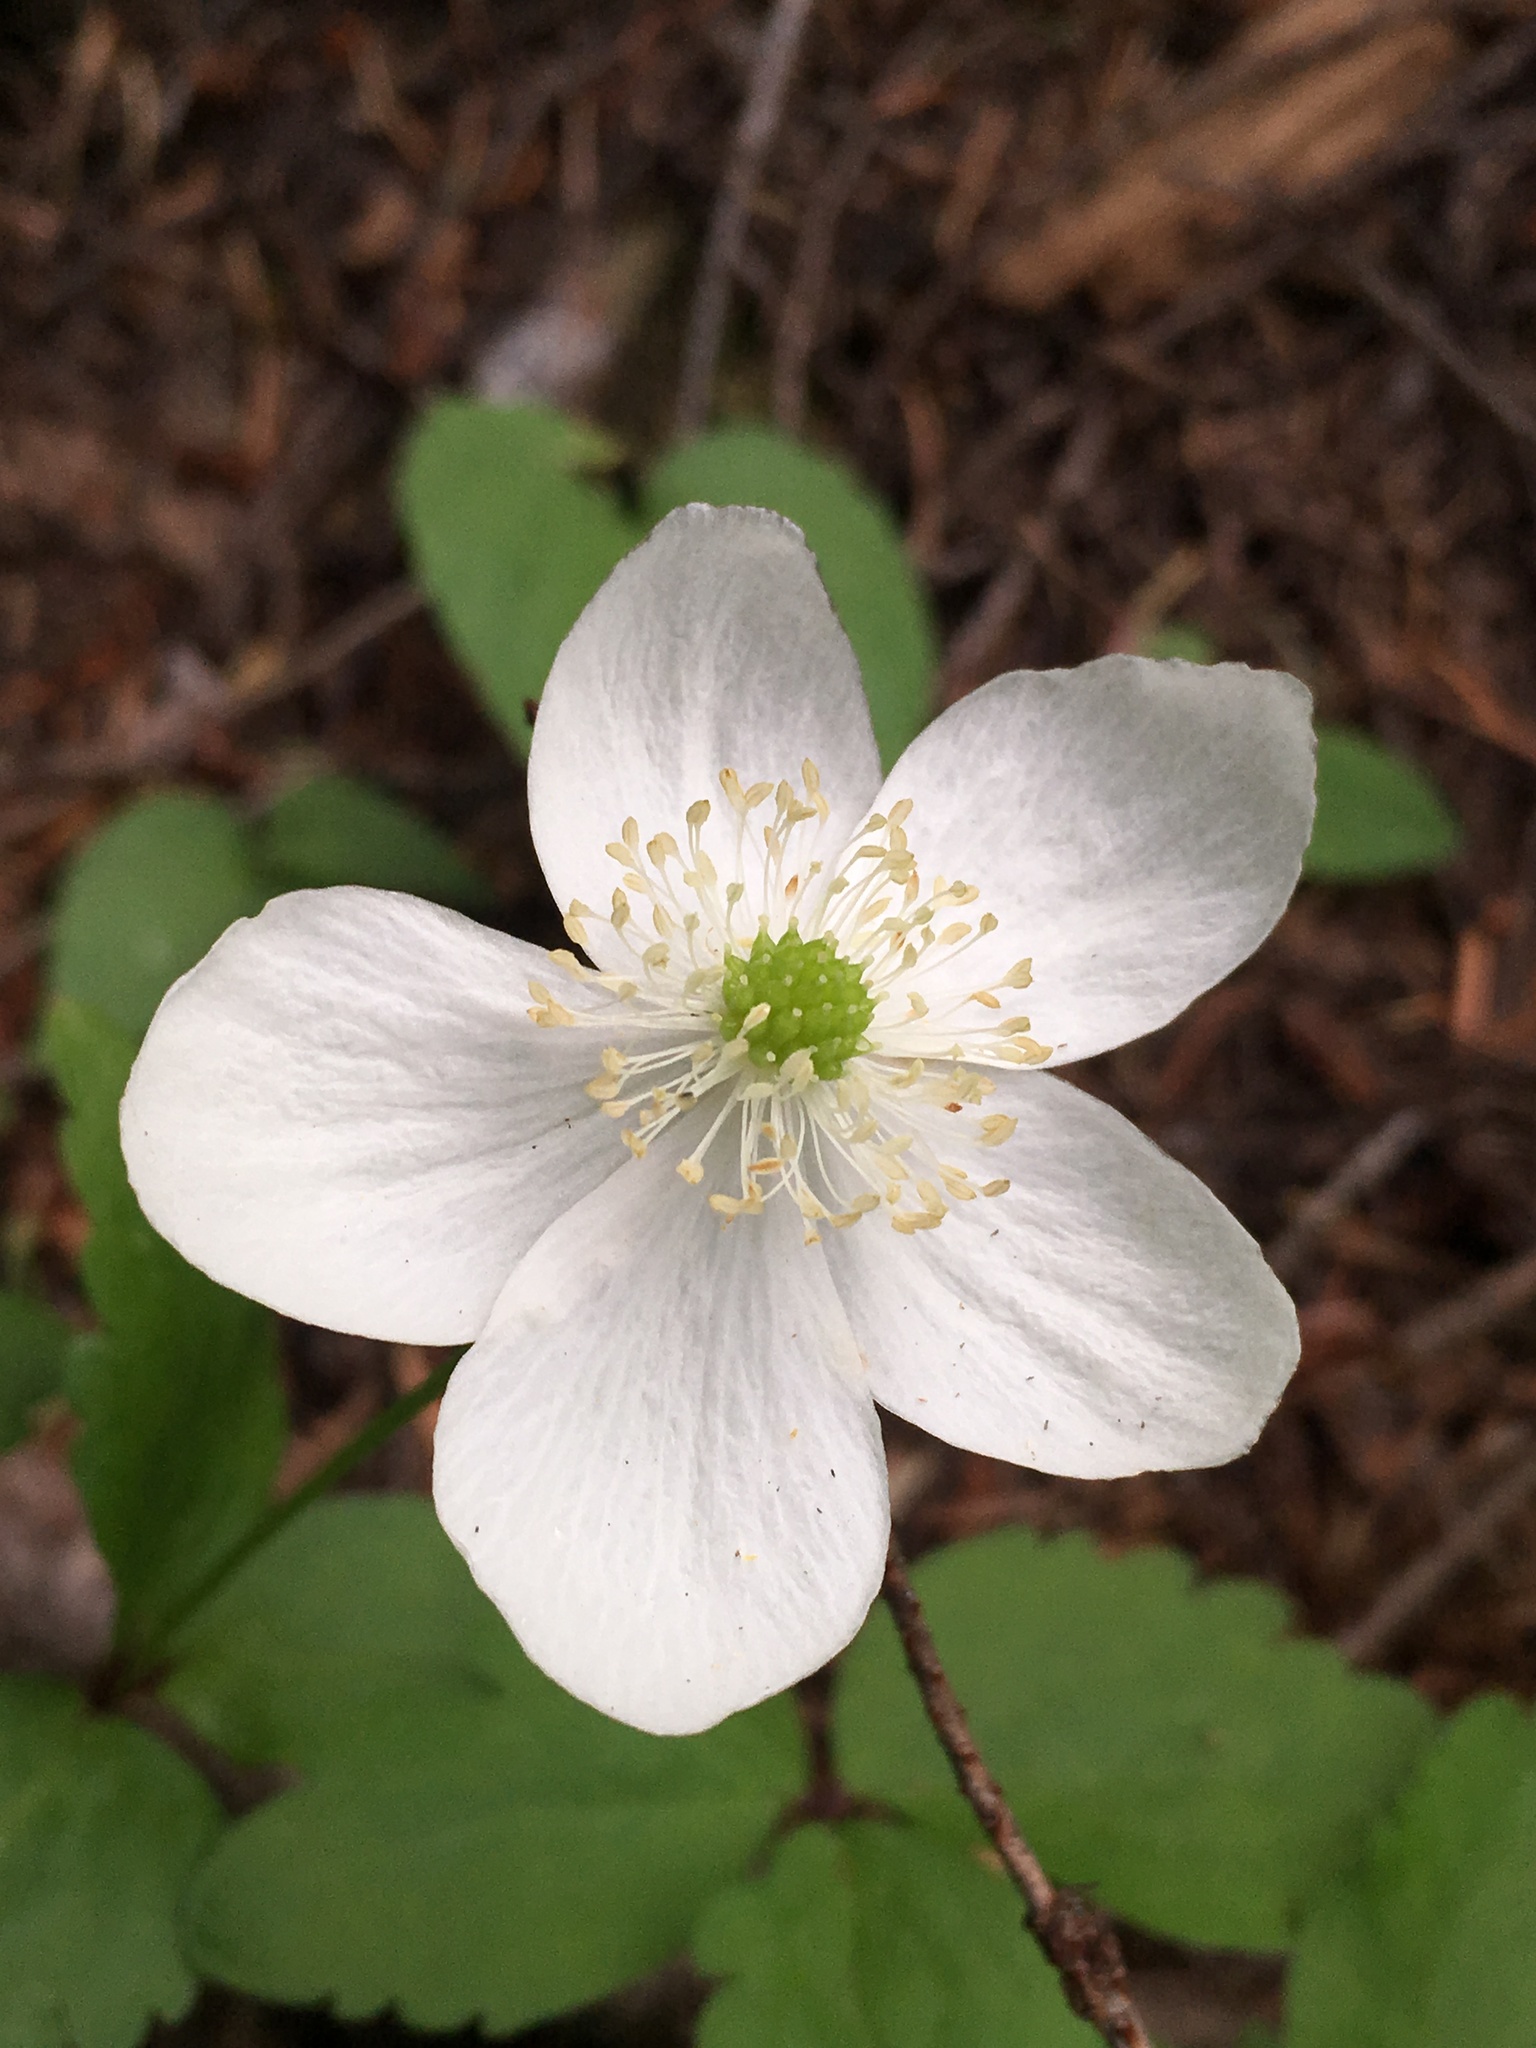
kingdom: Plantae
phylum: Tracheophyta
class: Magnoliopsida
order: Ranunculales
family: Ranunculaceae
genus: Anemonastrum
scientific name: Anemonastrum deltoideum
